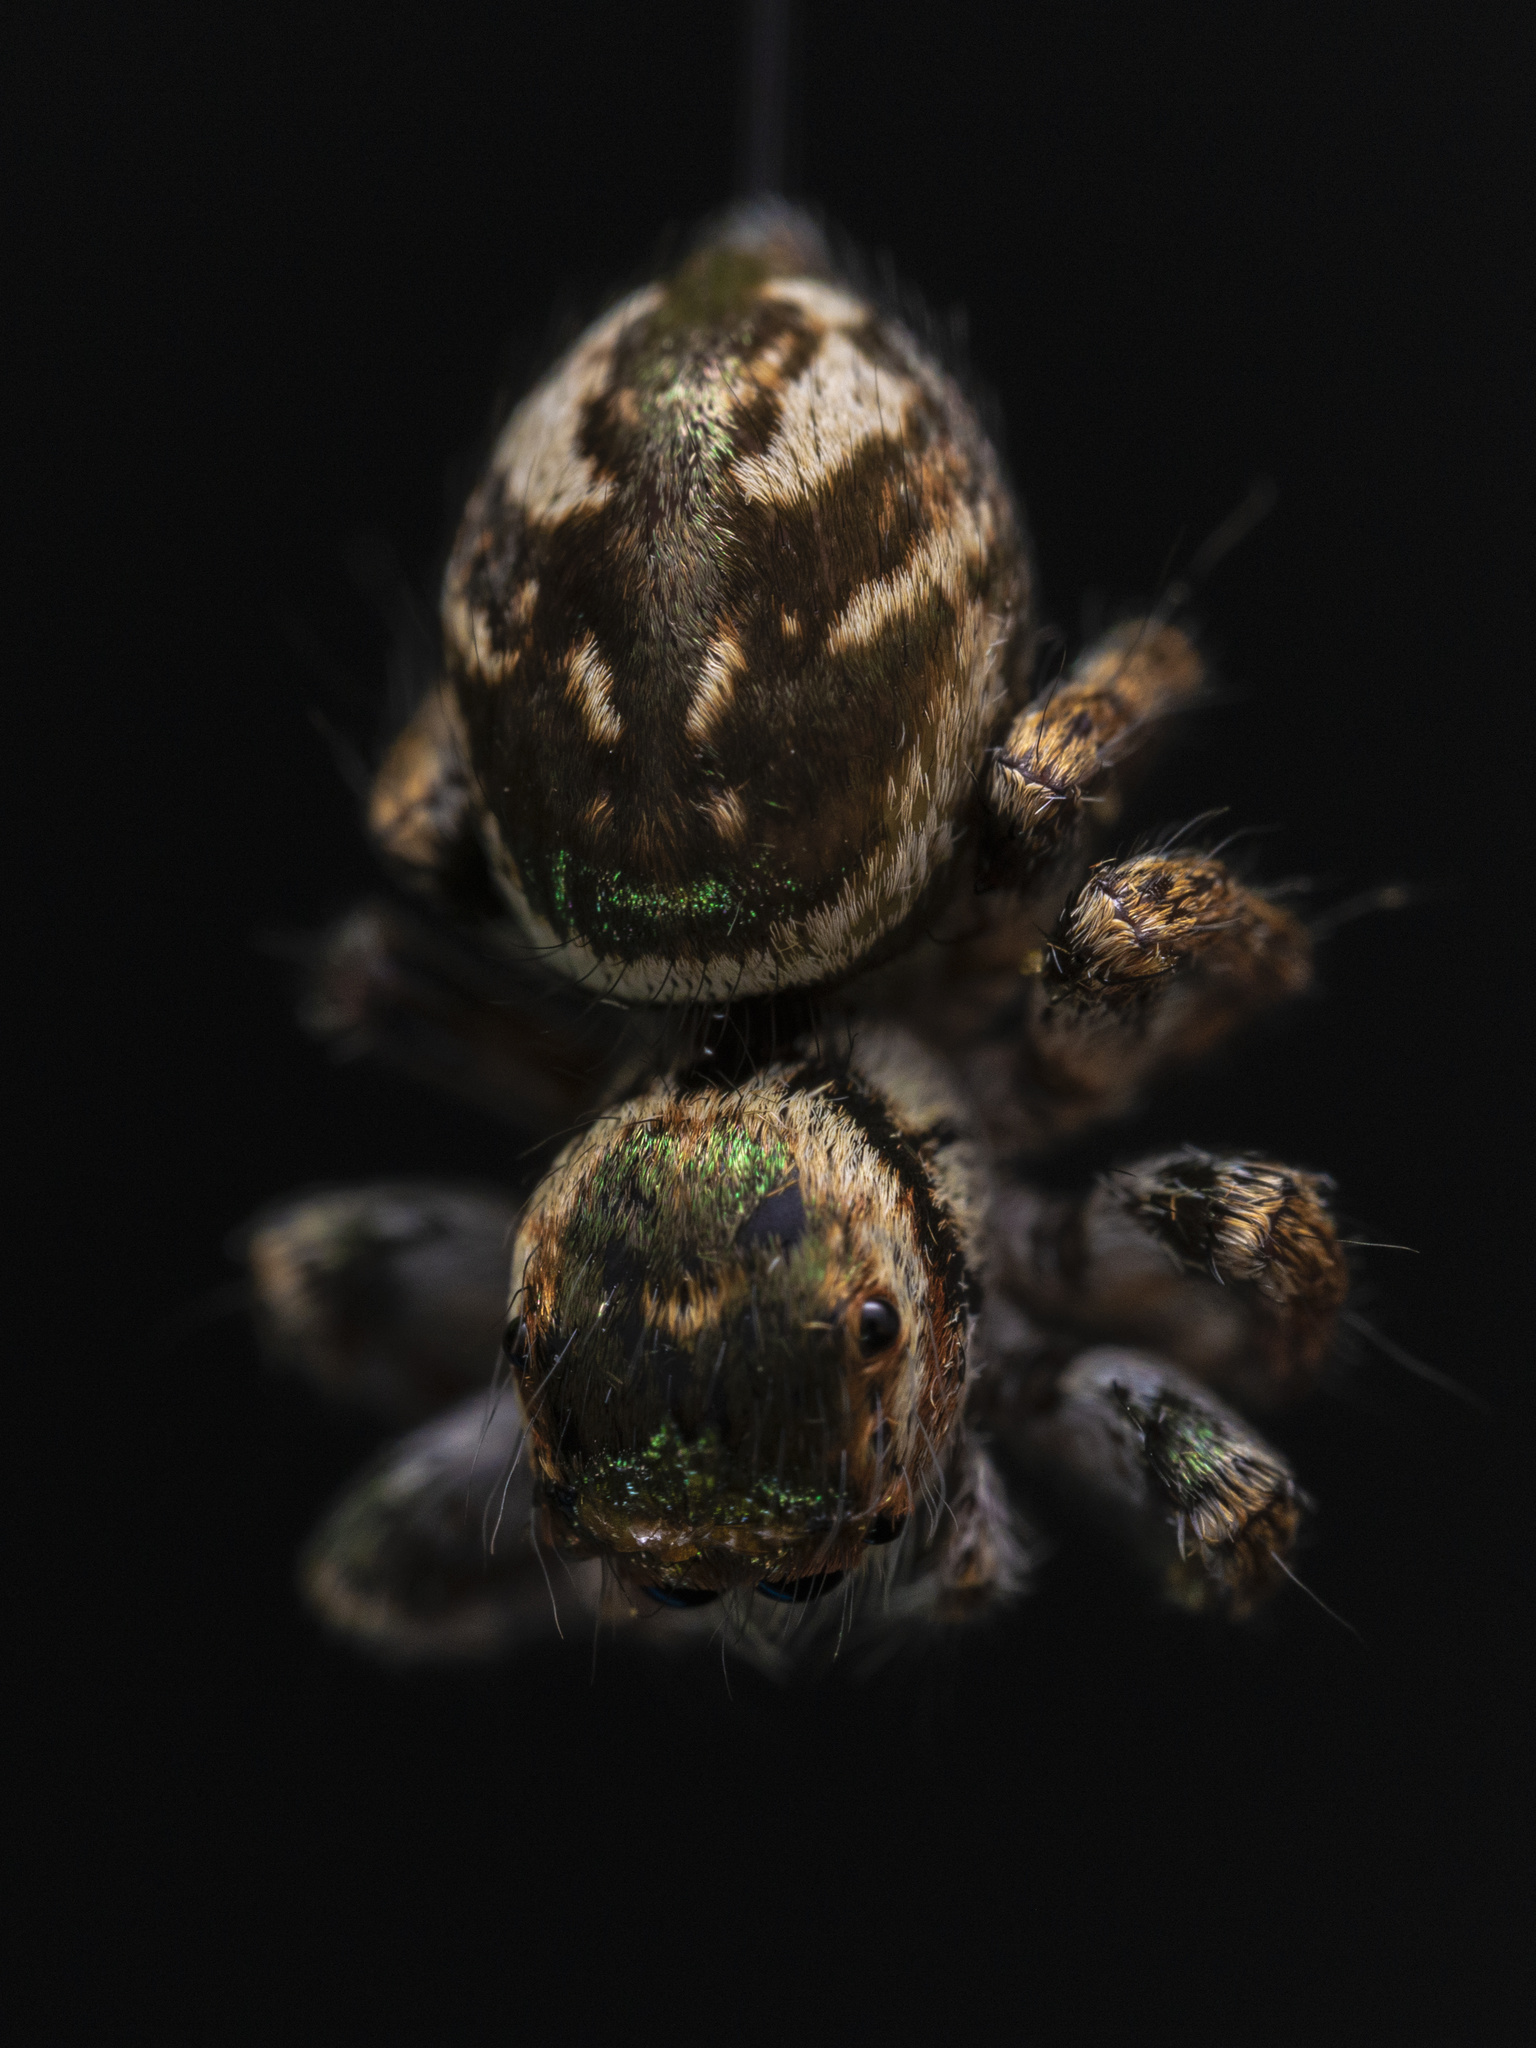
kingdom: Animalia
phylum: Arthropoda
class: Arachnida
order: Araneae
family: Salticidae
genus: Carrhotus
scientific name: Carrhotus viduus
